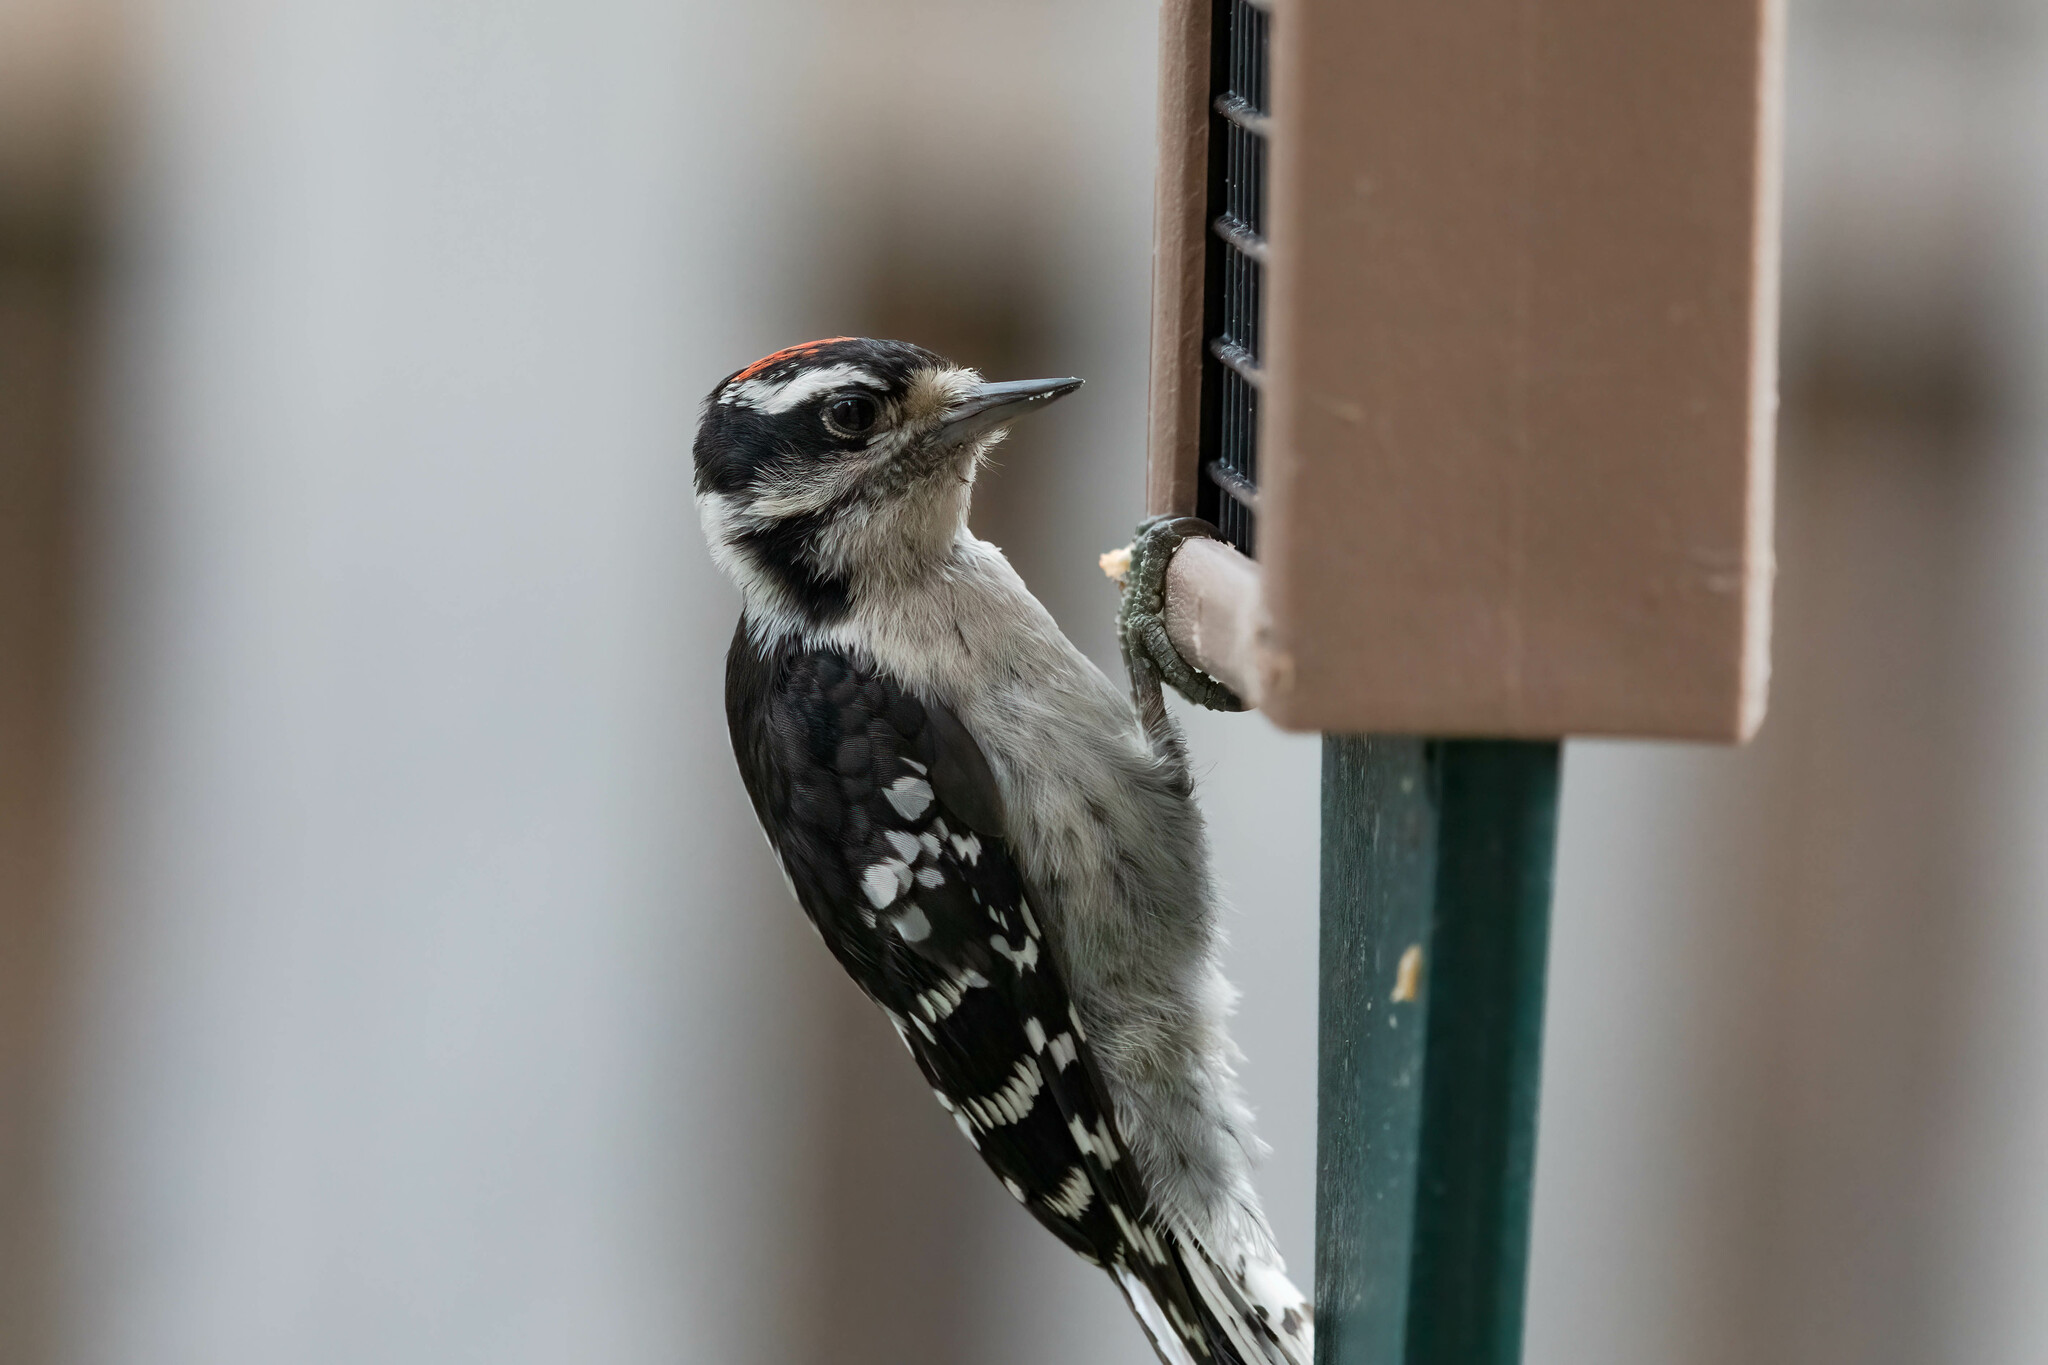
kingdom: Animalia
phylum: Chordata
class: Aves
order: Piciformes
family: Picidae
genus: Dryobates
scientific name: Dryobates pubescens
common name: Downy woodpecker
